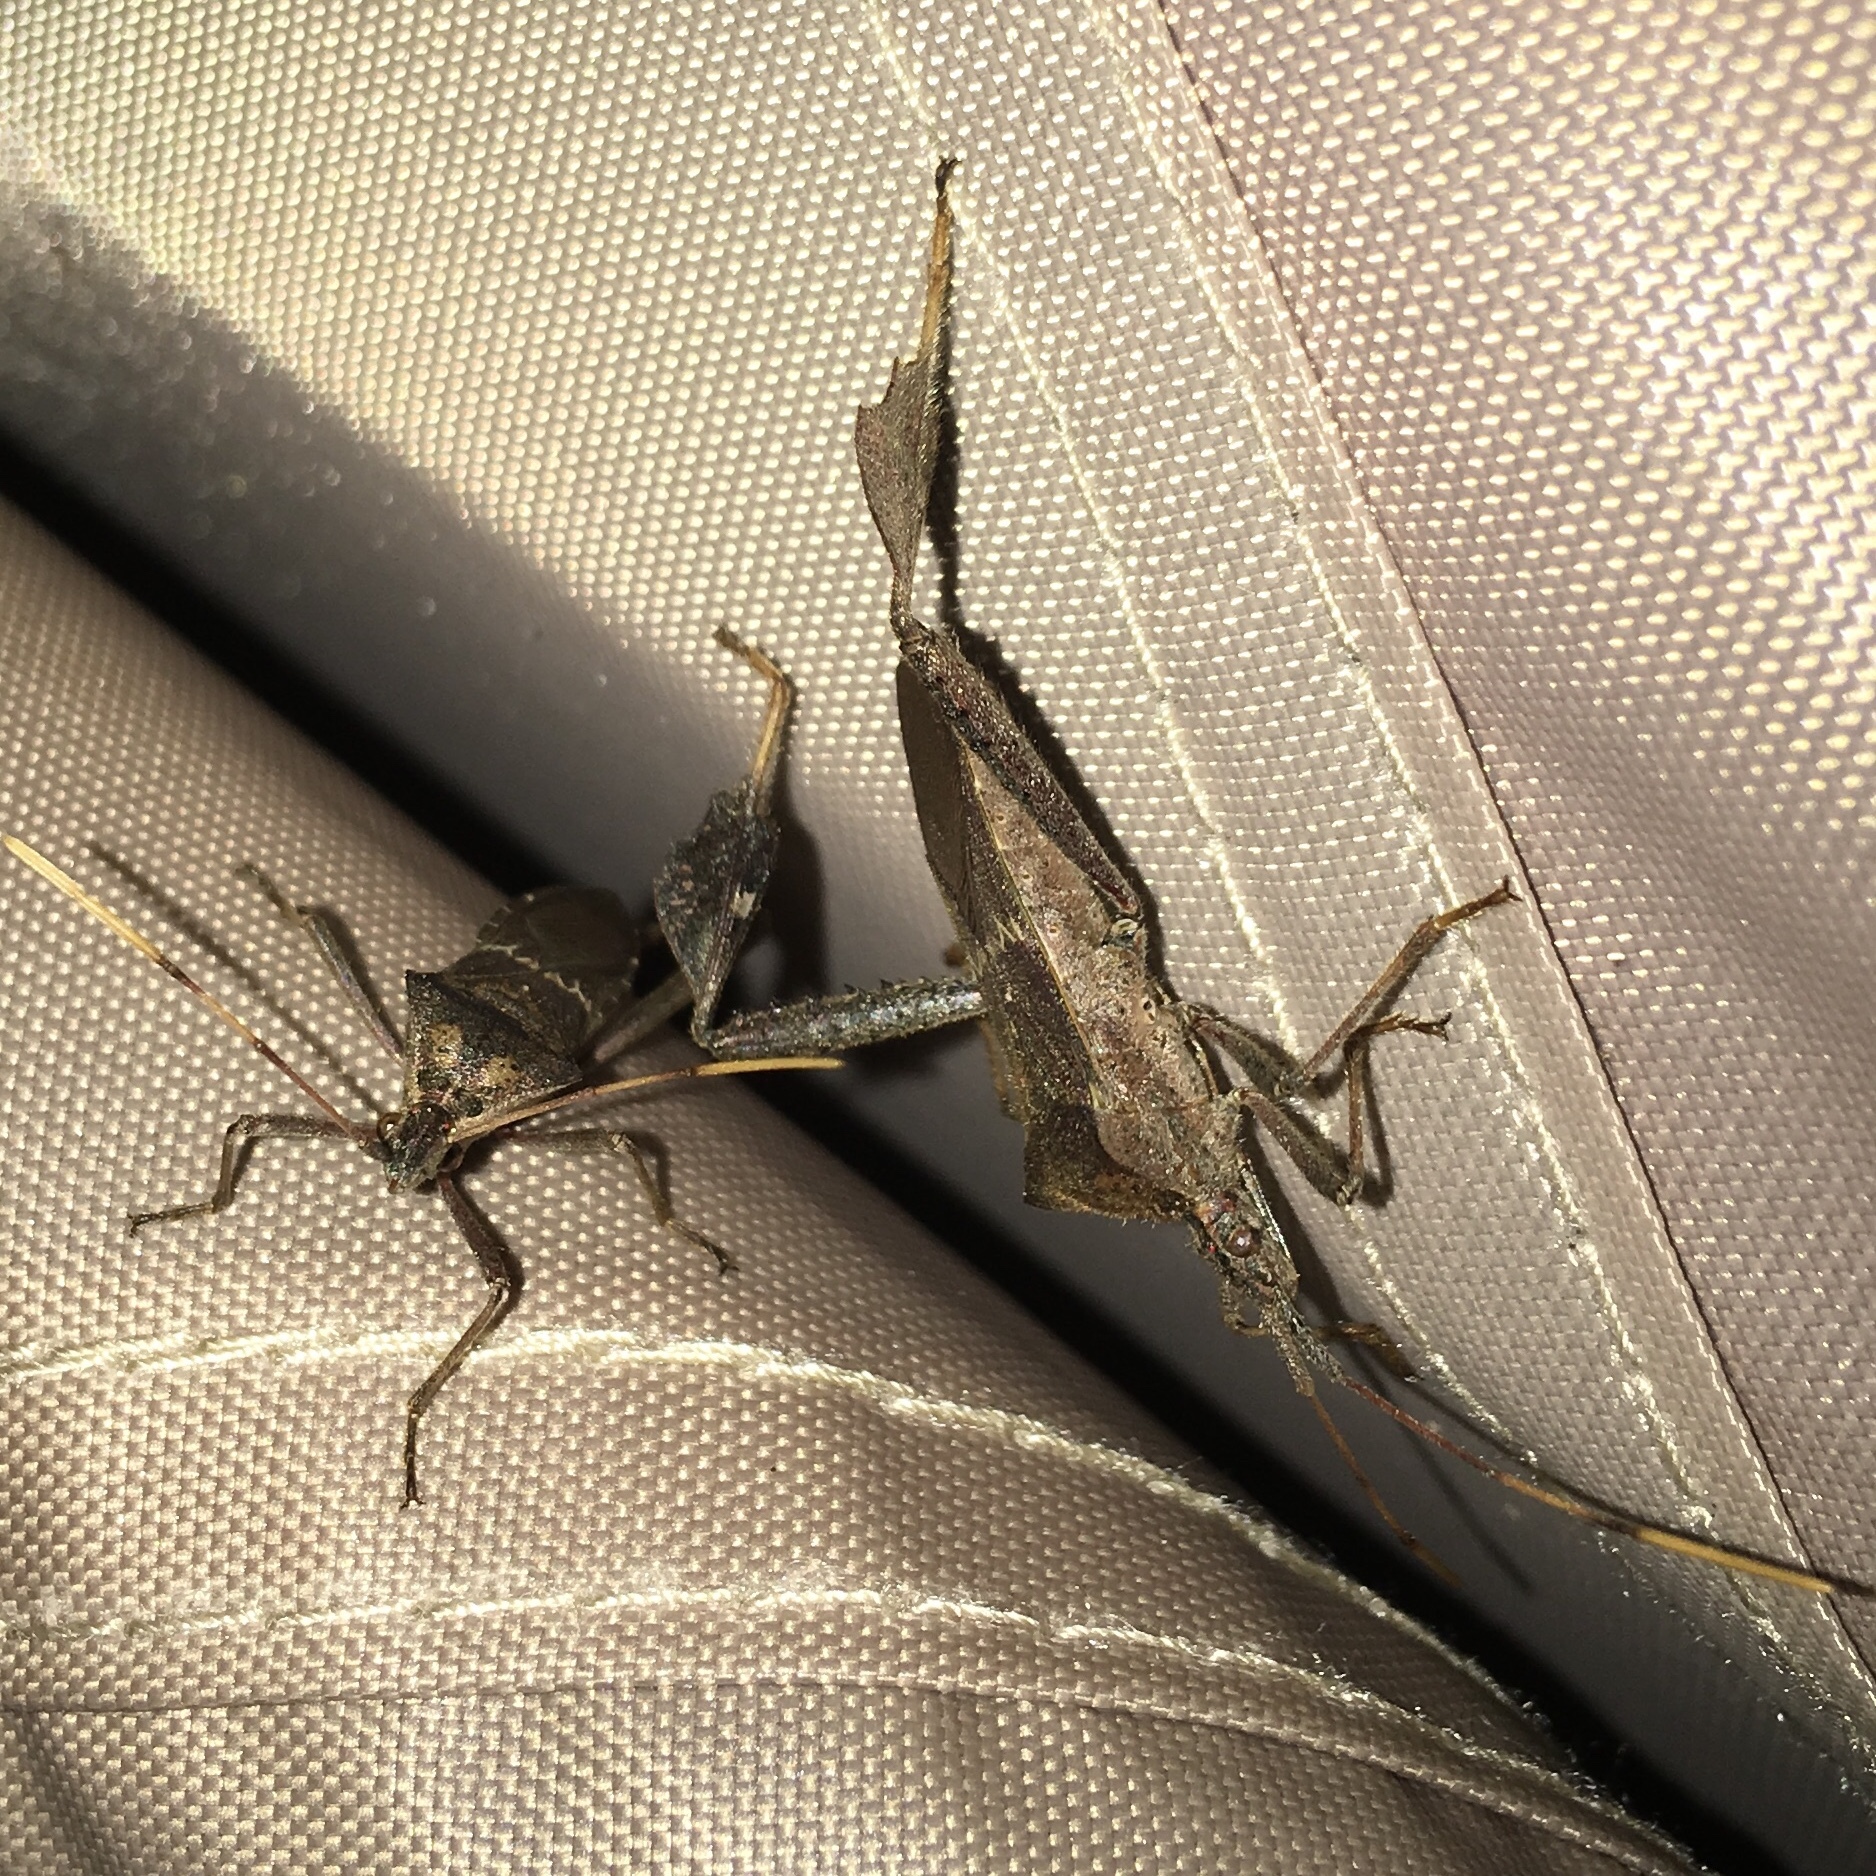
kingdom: Animalia
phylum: Arthropoda
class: Insecta
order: Hemiptera
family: Coreidae
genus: Leptoglossus
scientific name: Leptoglossus zonatus
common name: Large-legged bug
